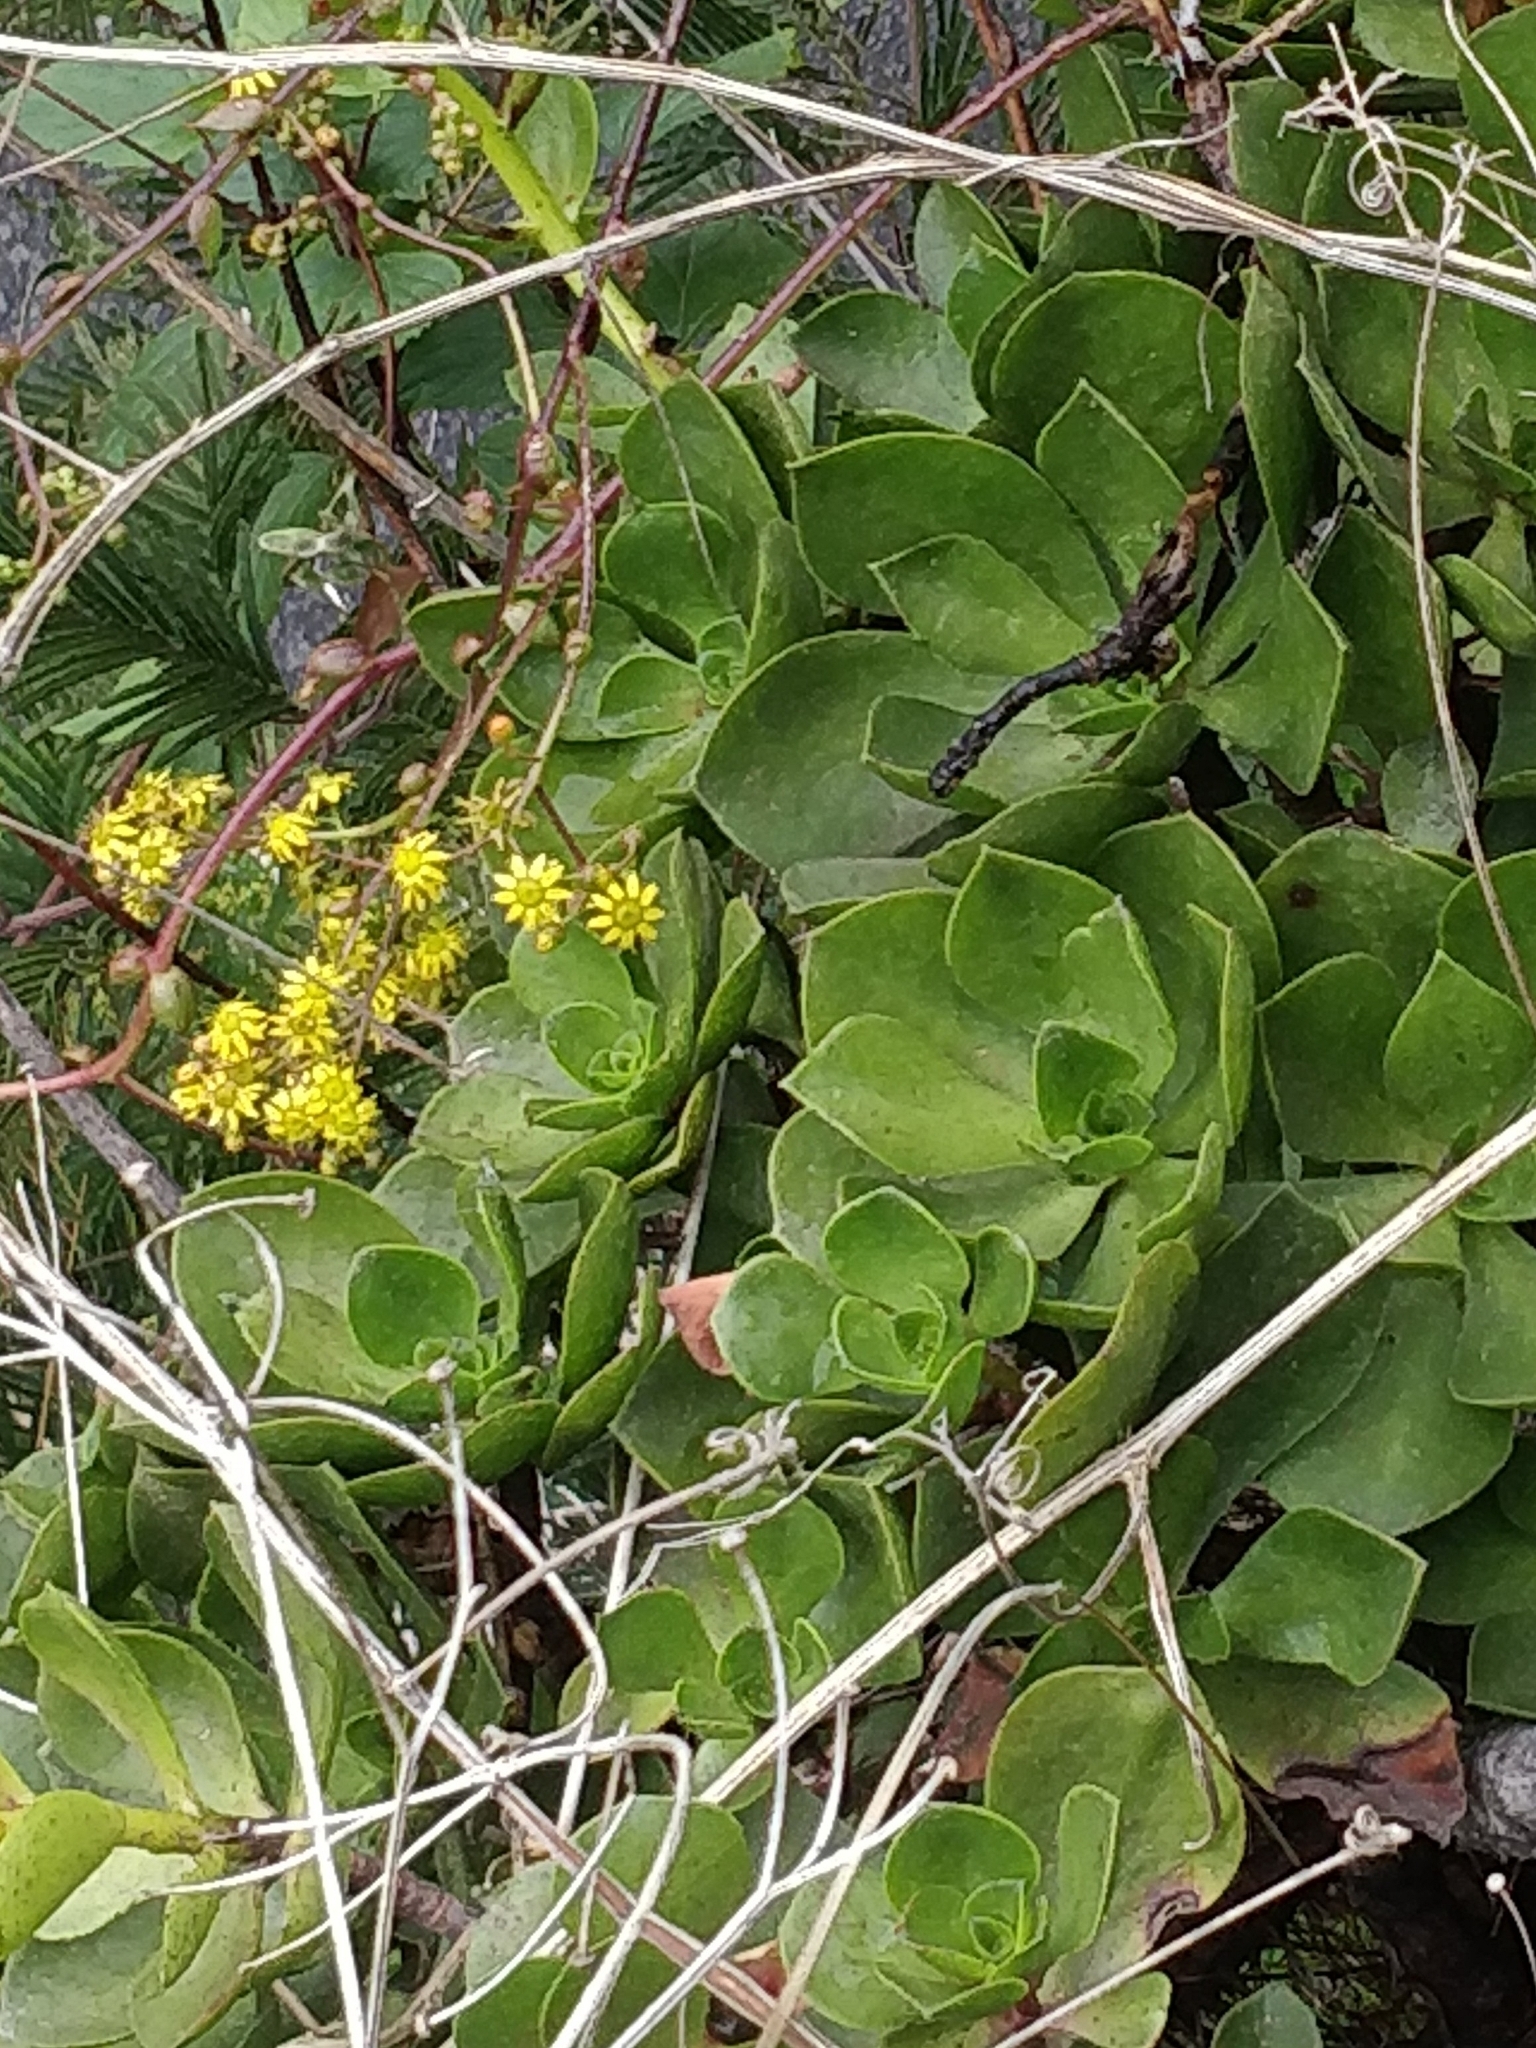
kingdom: Plantae
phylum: Tracheophyta
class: Magnoliopsida
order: Saxifragales
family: Crassulaceae
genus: Aeonium
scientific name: Aeonium glutinosum
